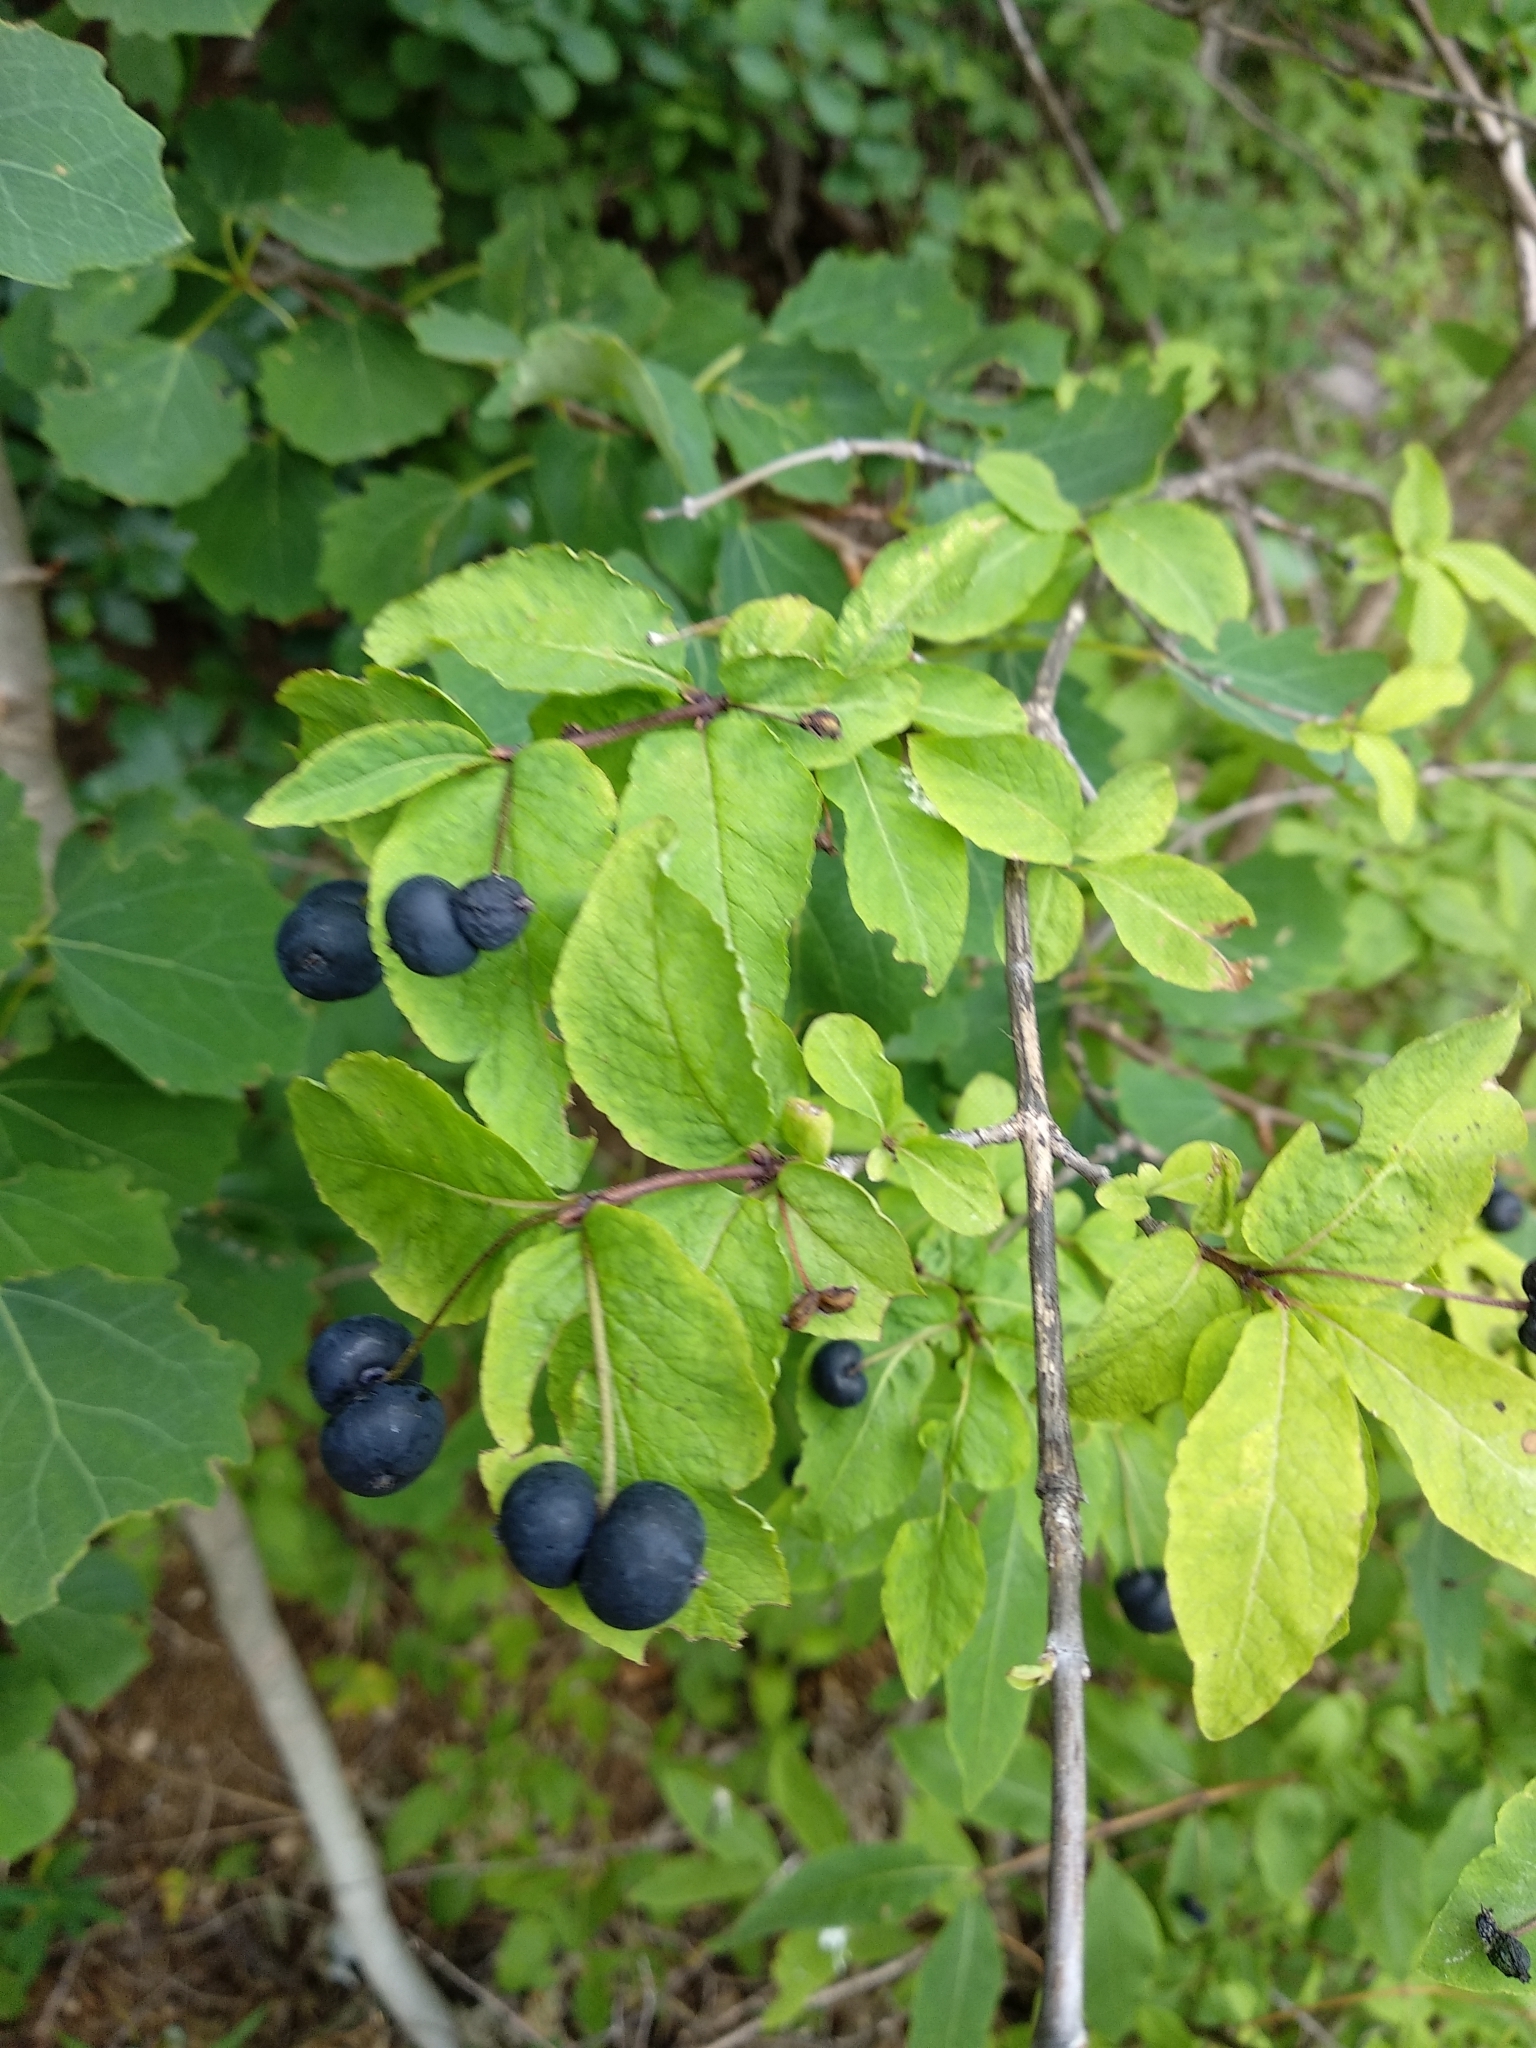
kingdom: Plantae
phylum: Tracheophyta
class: Magnoliopsida
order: Dipsacales
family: Caprifoliaceae
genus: Lonicera
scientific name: Lonicera nigra
